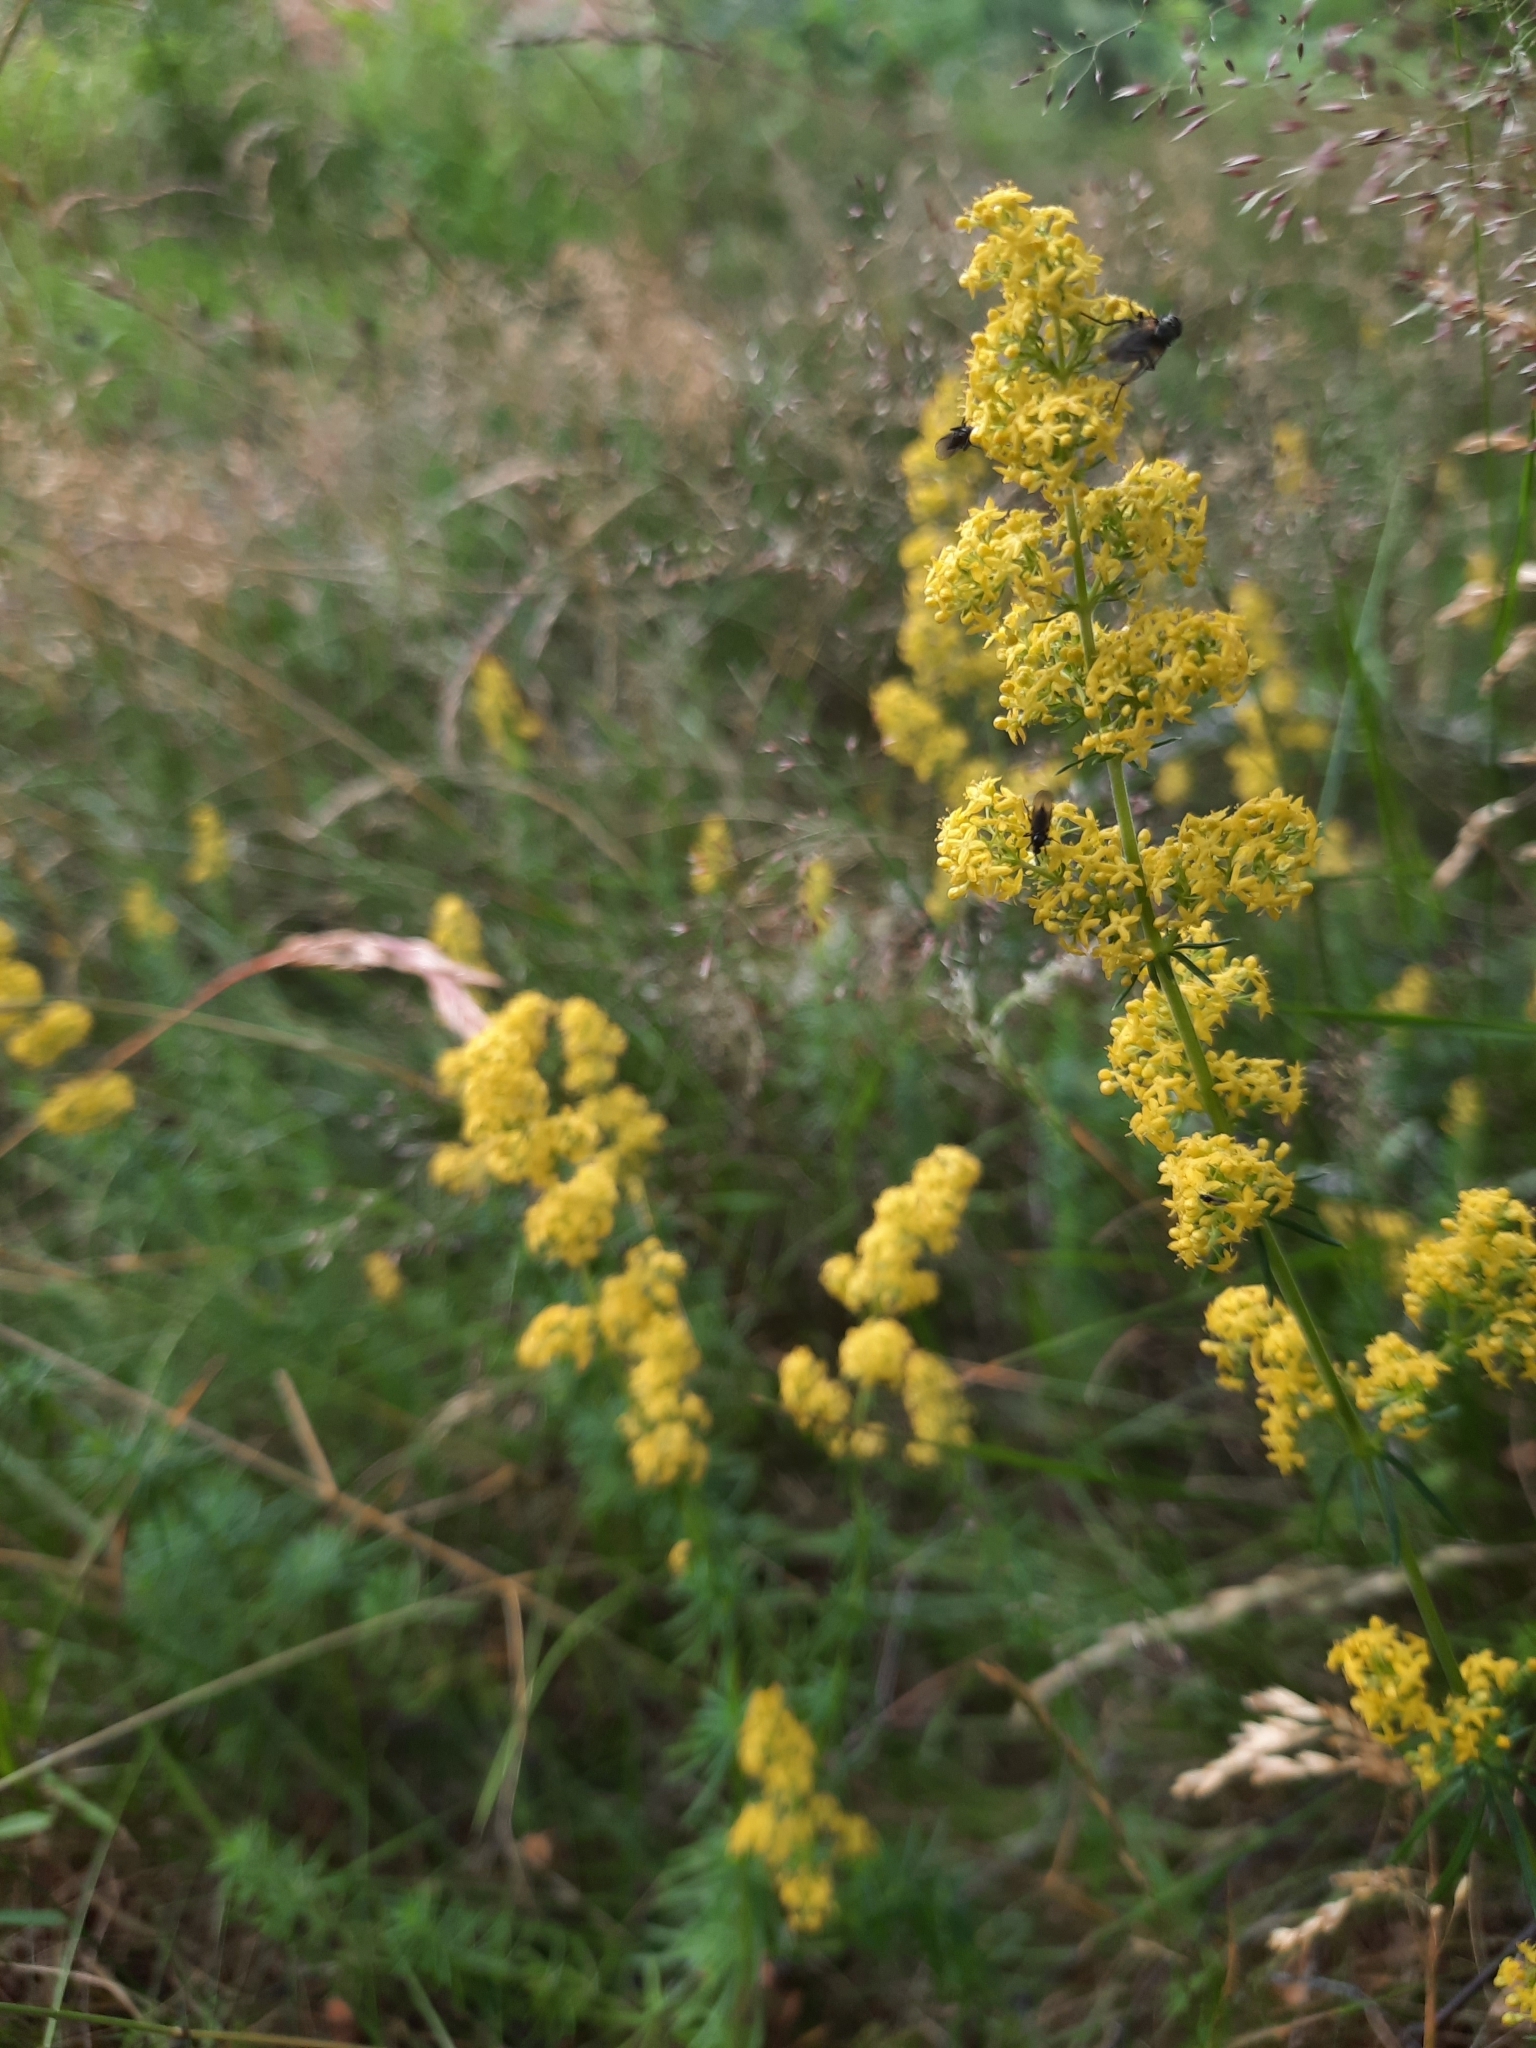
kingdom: Plantae
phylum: Tracheophyta
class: Magnoliopsida
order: Gentianales
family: Rubiaceae
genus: Galium
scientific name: Galium verum
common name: Lady's bedstraw
